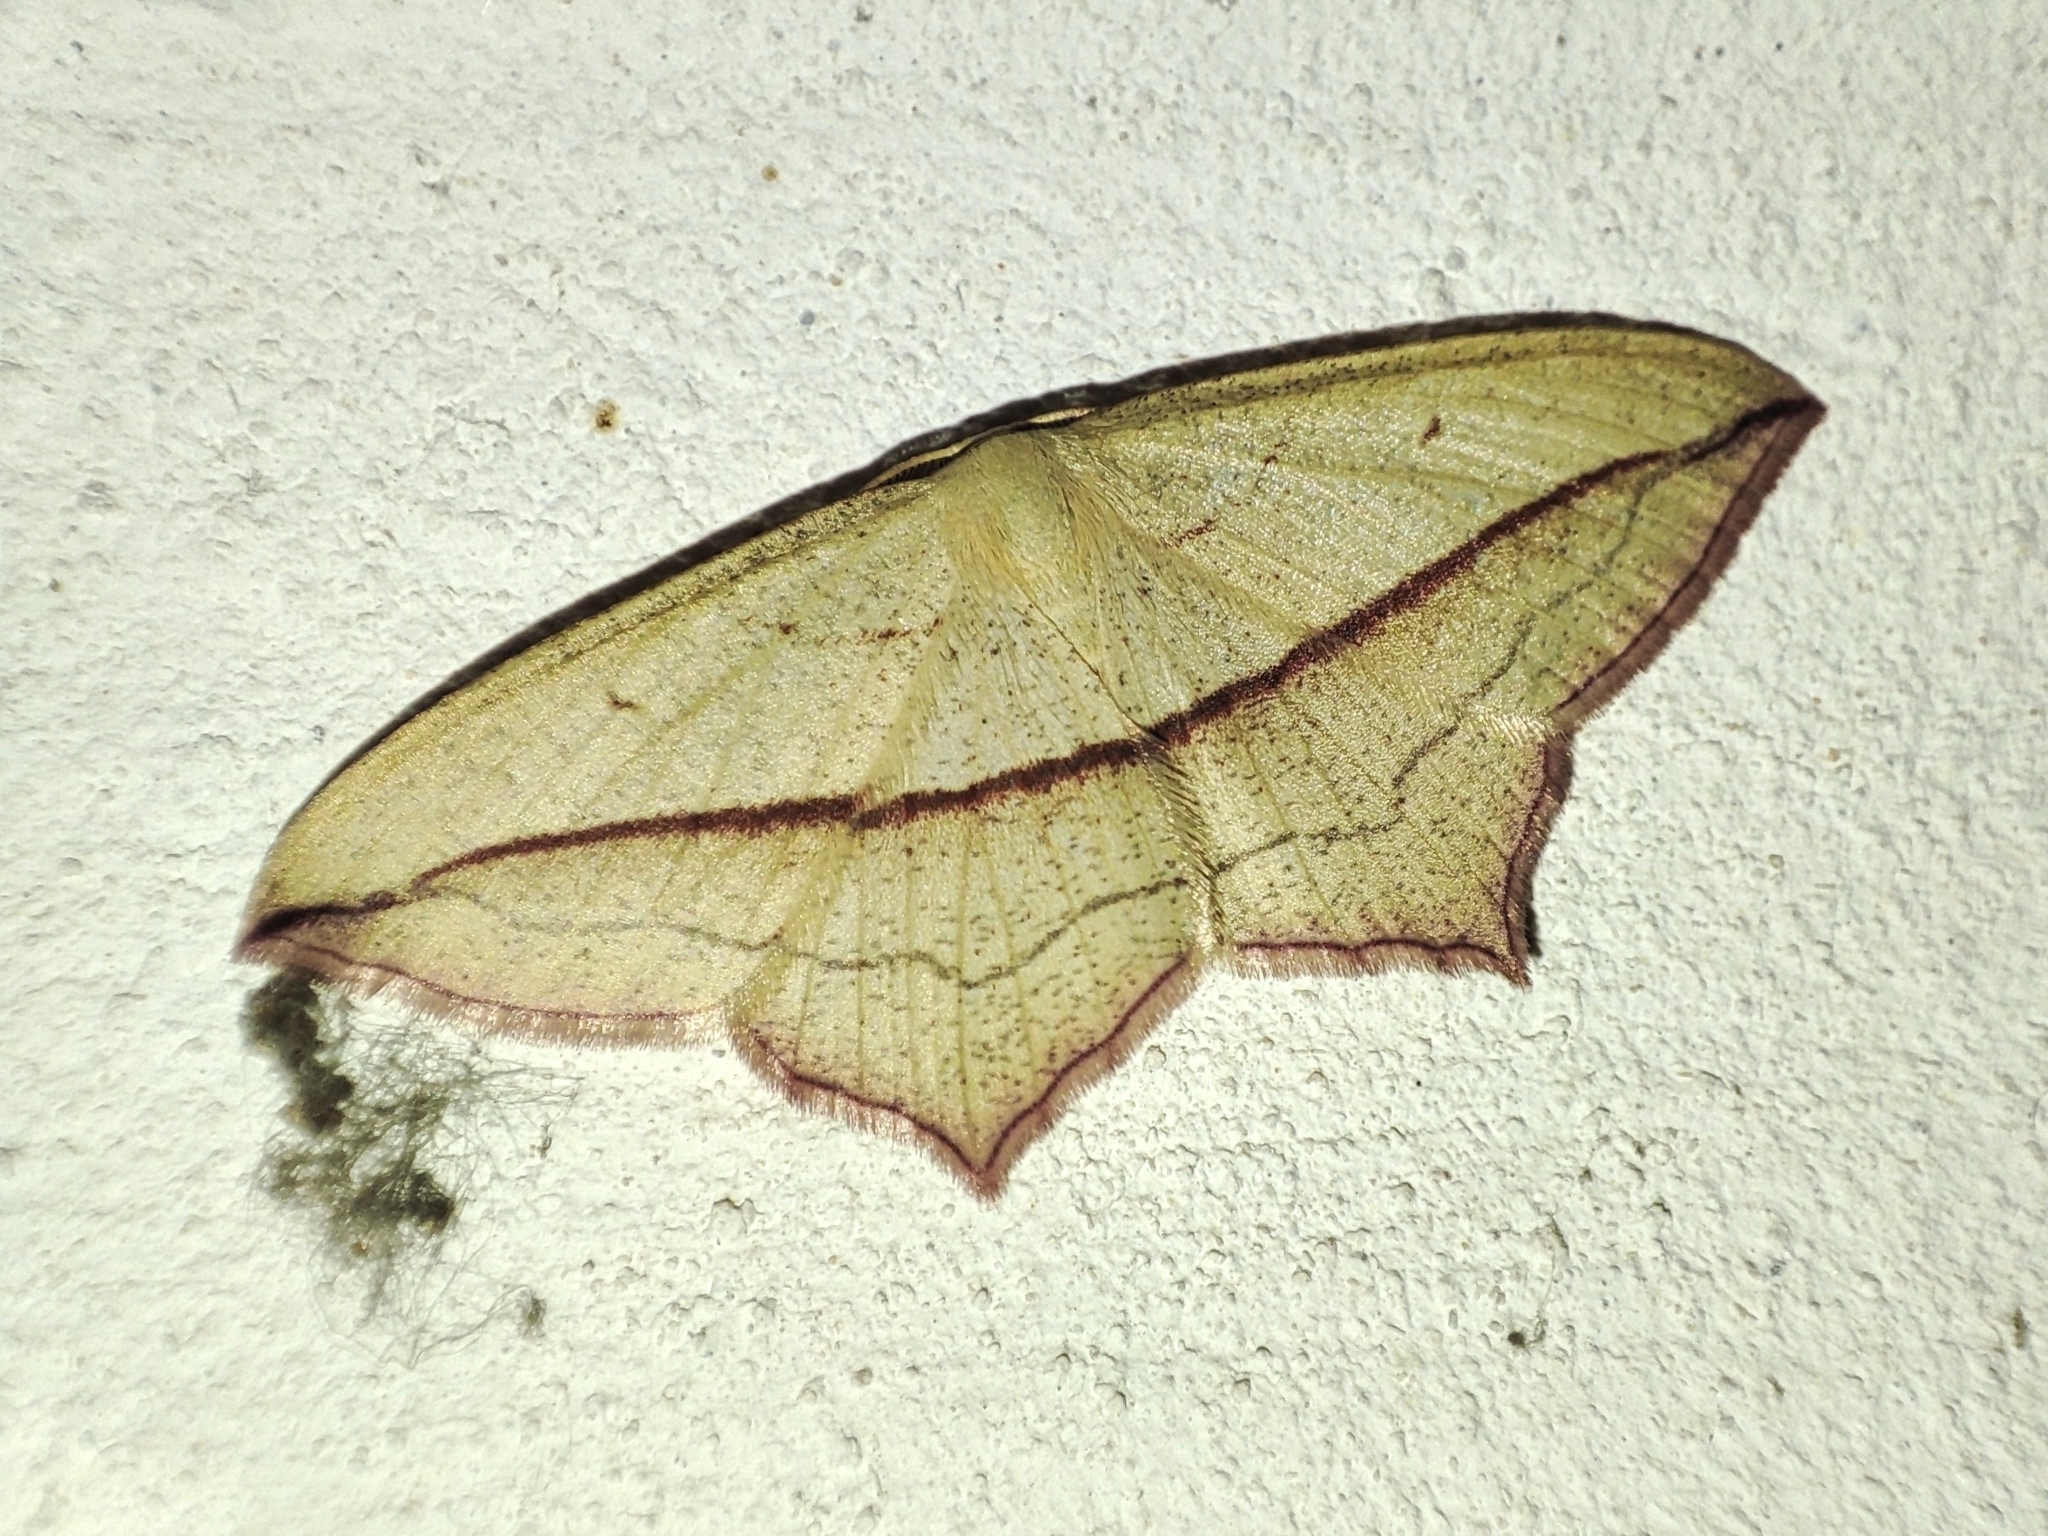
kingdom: Animalia
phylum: Arthropoda
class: Insecta
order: Lepidoptera
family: Geometridae
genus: Timandra
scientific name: Timandra comae
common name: Blood-vein
